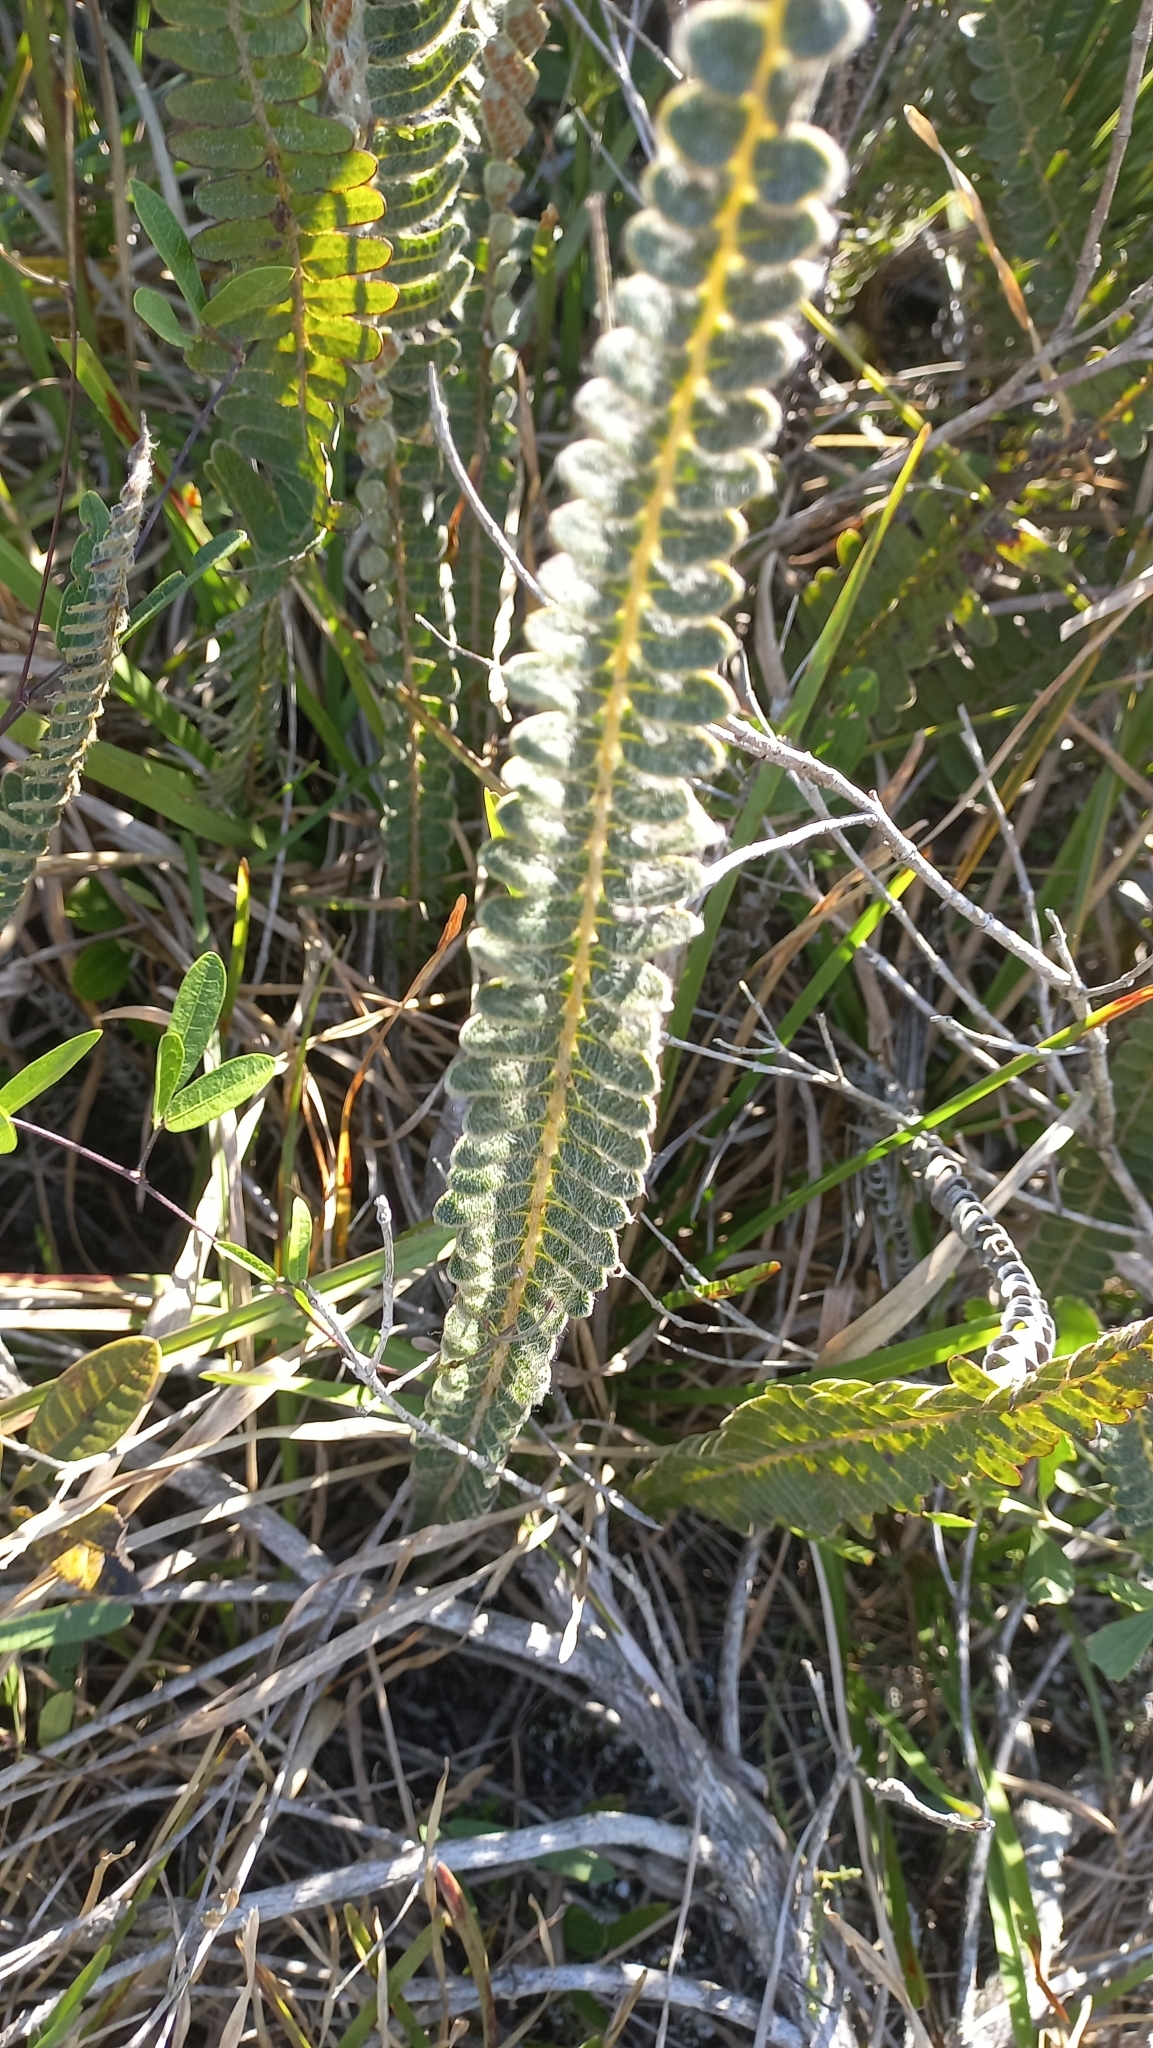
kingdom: Plantae
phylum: Tracheophyta
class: Polypodiopsida
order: Polypodiales
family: Polypodiaceae
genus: Pleopeltis
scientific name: Pleopeltis lepidopteris
